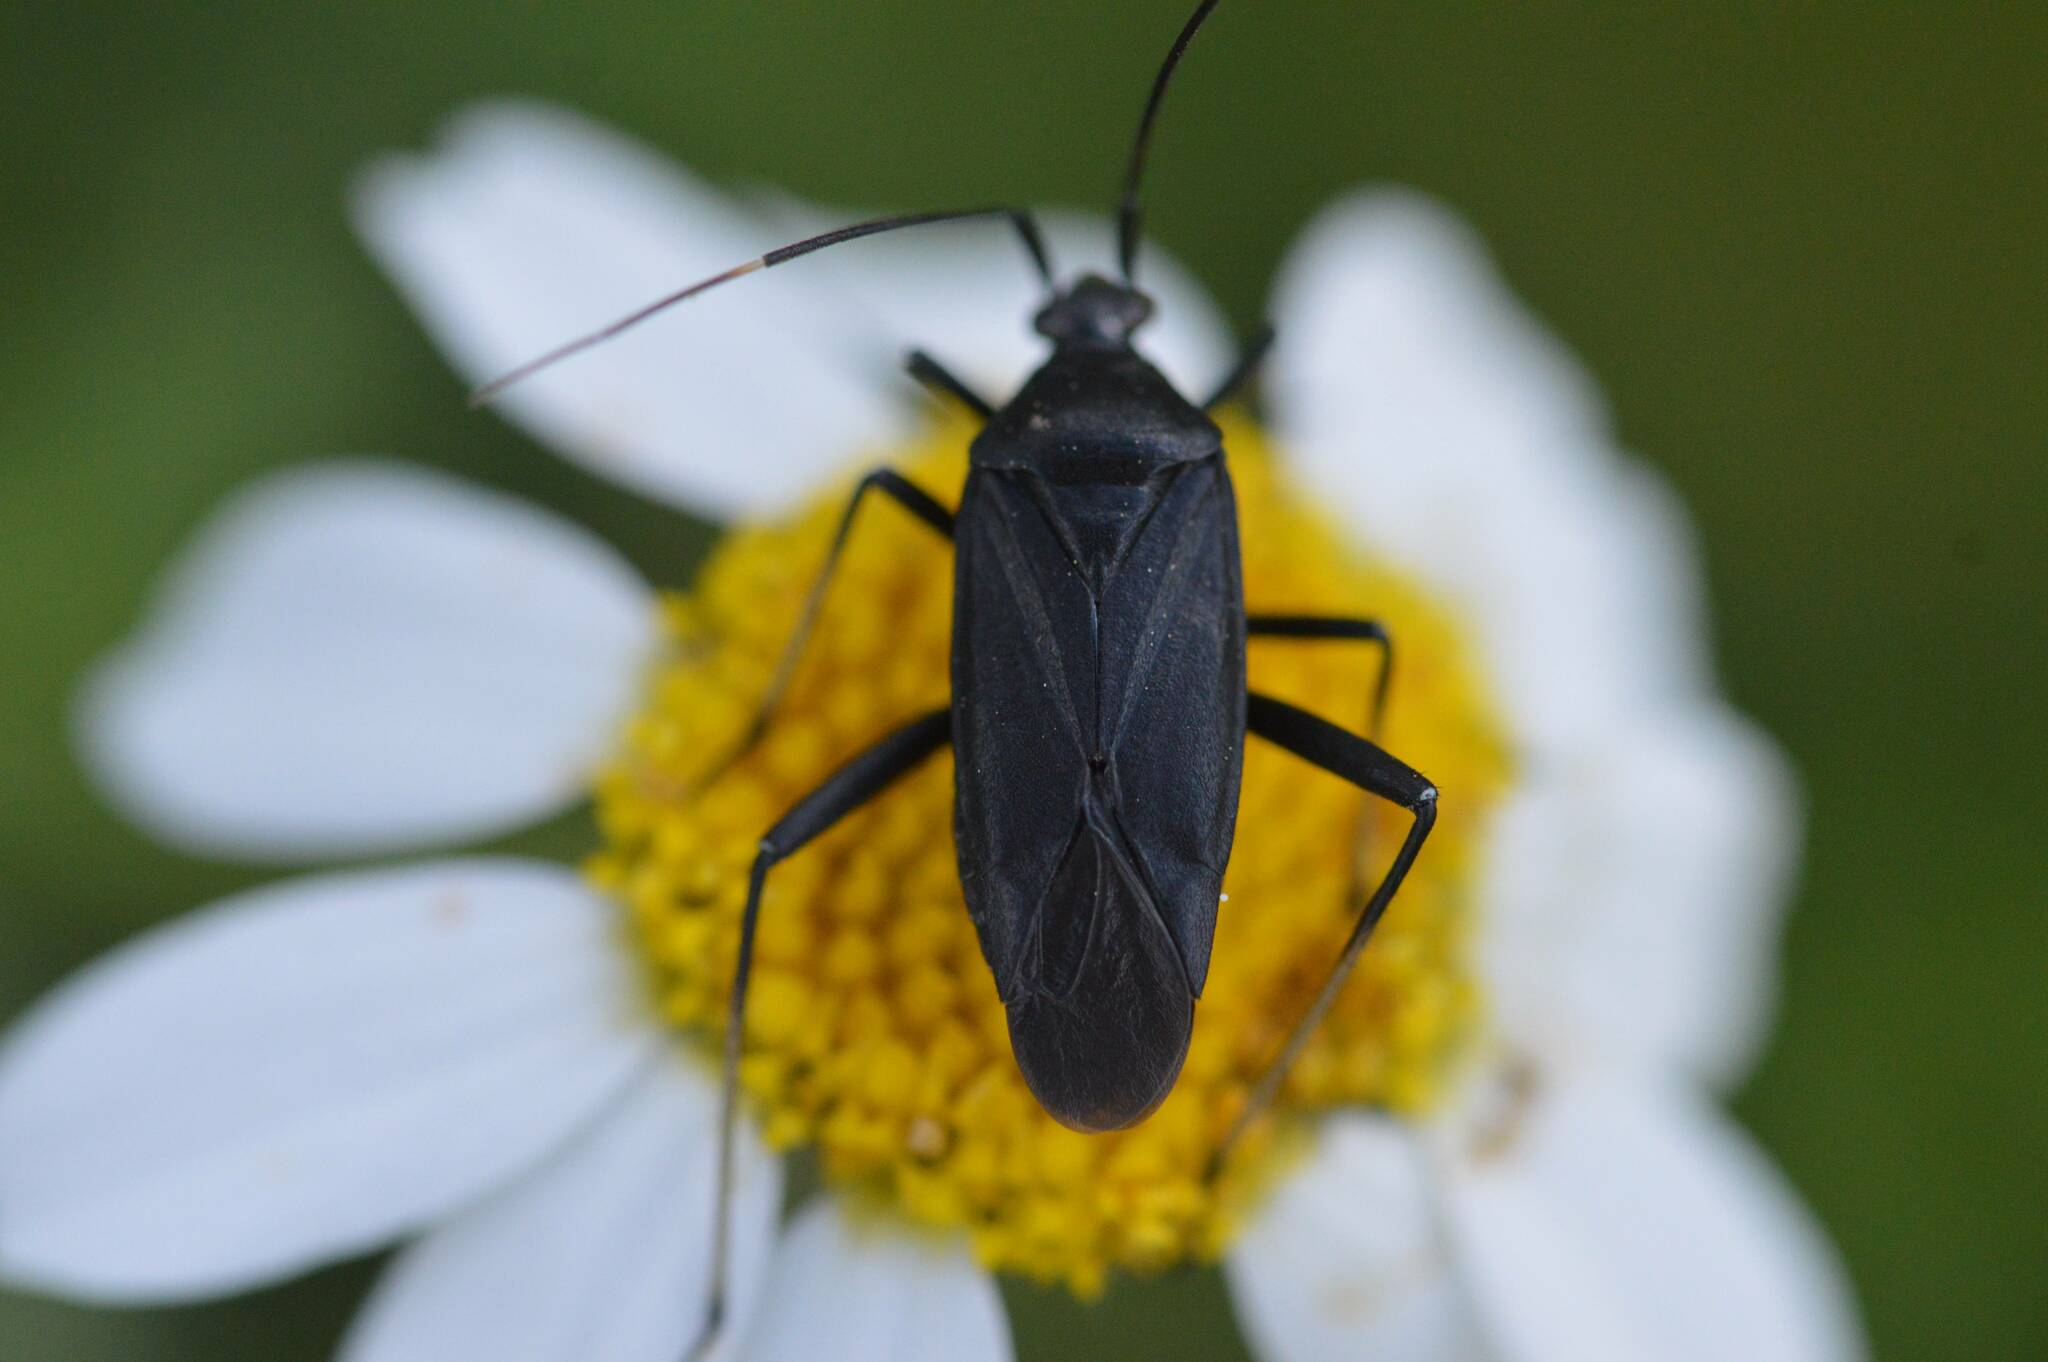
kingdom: Animalia
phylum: Arthropoda
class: Insecta
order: Hemiptera
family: Miridae
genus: Calocoris
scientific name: Calocoris nemoralis
